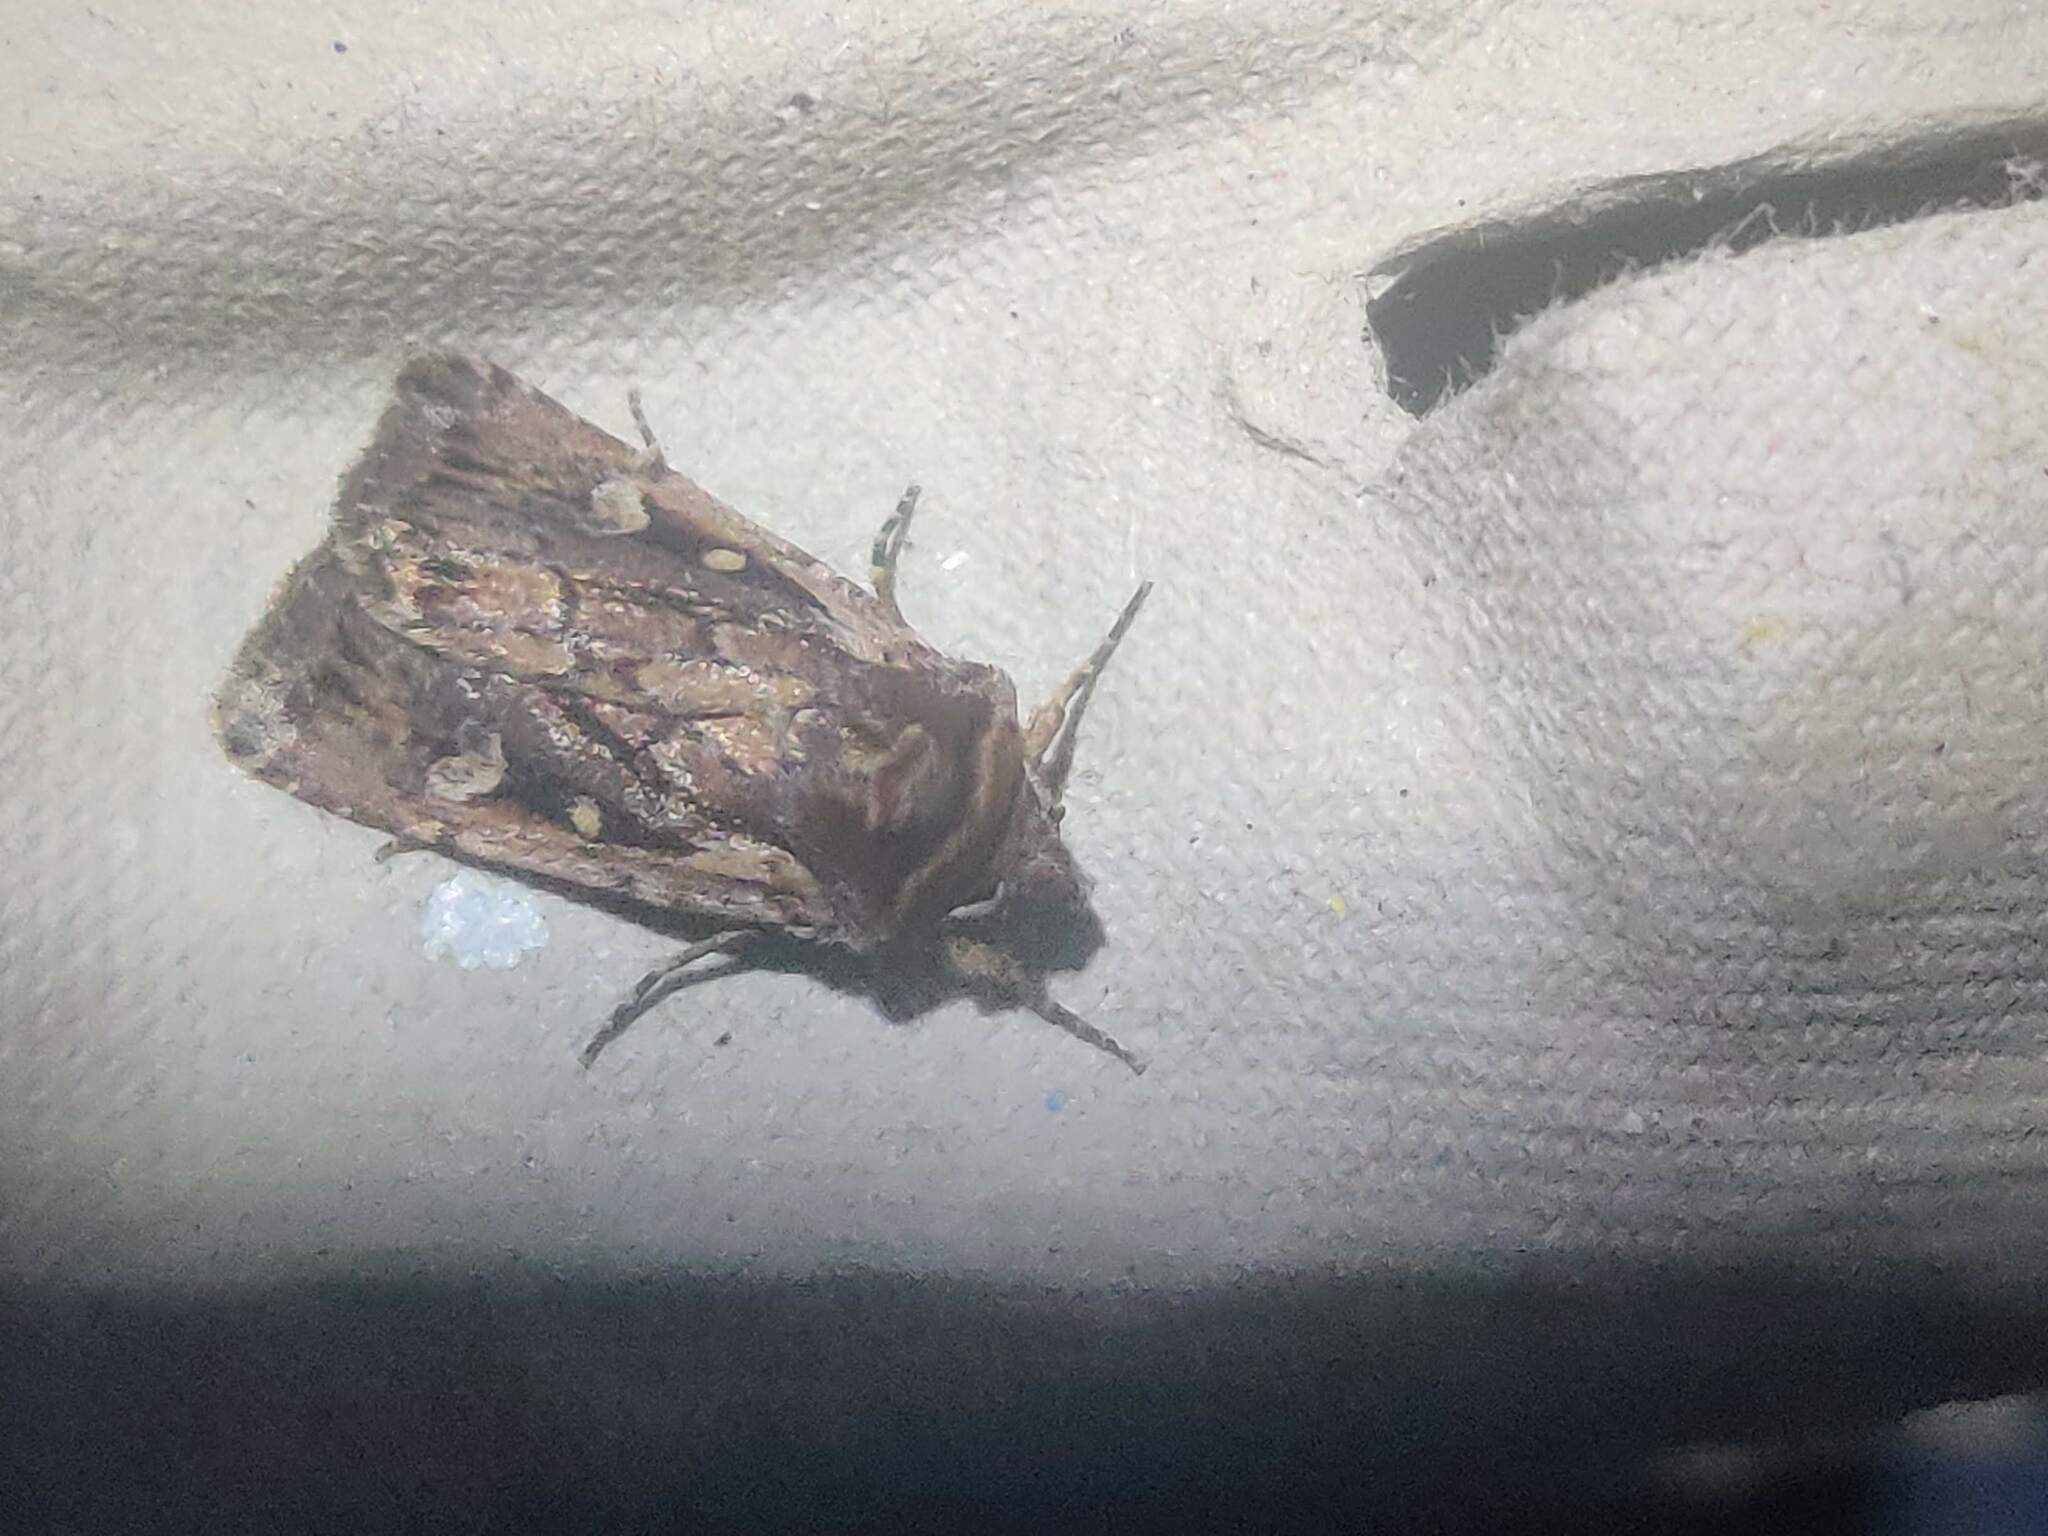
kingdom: Animalia
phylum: Arthropoda
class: Insecta
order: Lepidoptera
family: Noctuidae
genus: Xestia
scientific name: Xestia agathina
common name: Heath rustic
